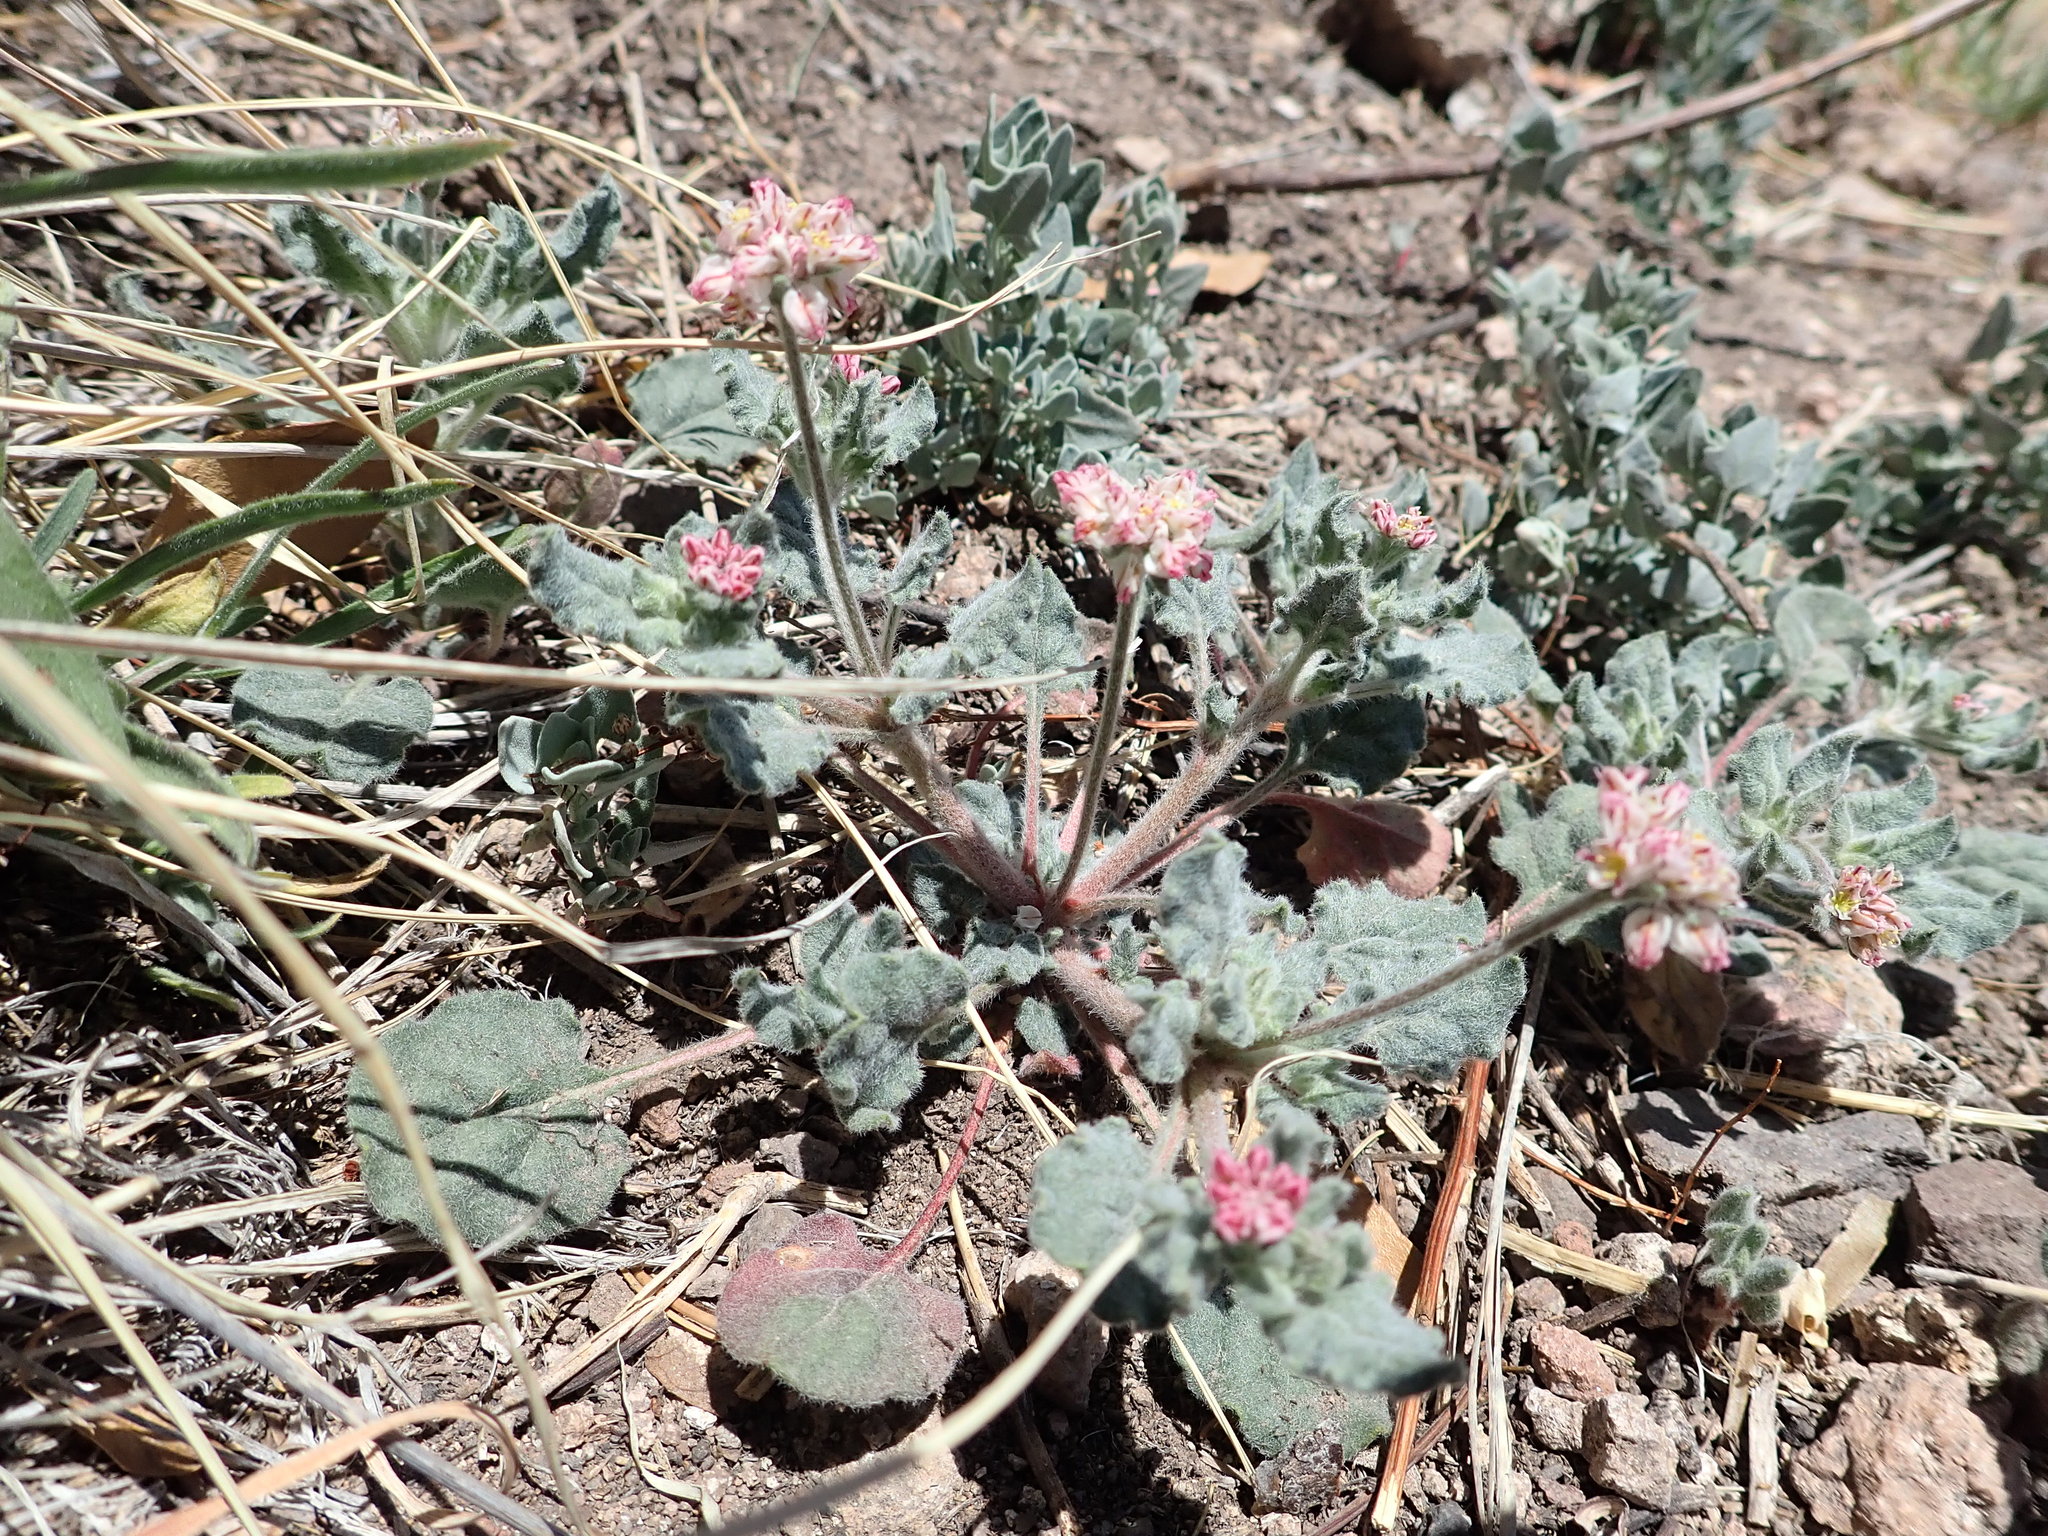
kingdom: Plantae
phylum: Tracheophyta
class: Magnoliopsida
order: Caryophyllales
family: Polygonaceae
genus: Eriogonum
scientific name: Eriogonum abertianum
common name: Abert's wild buckwheat
